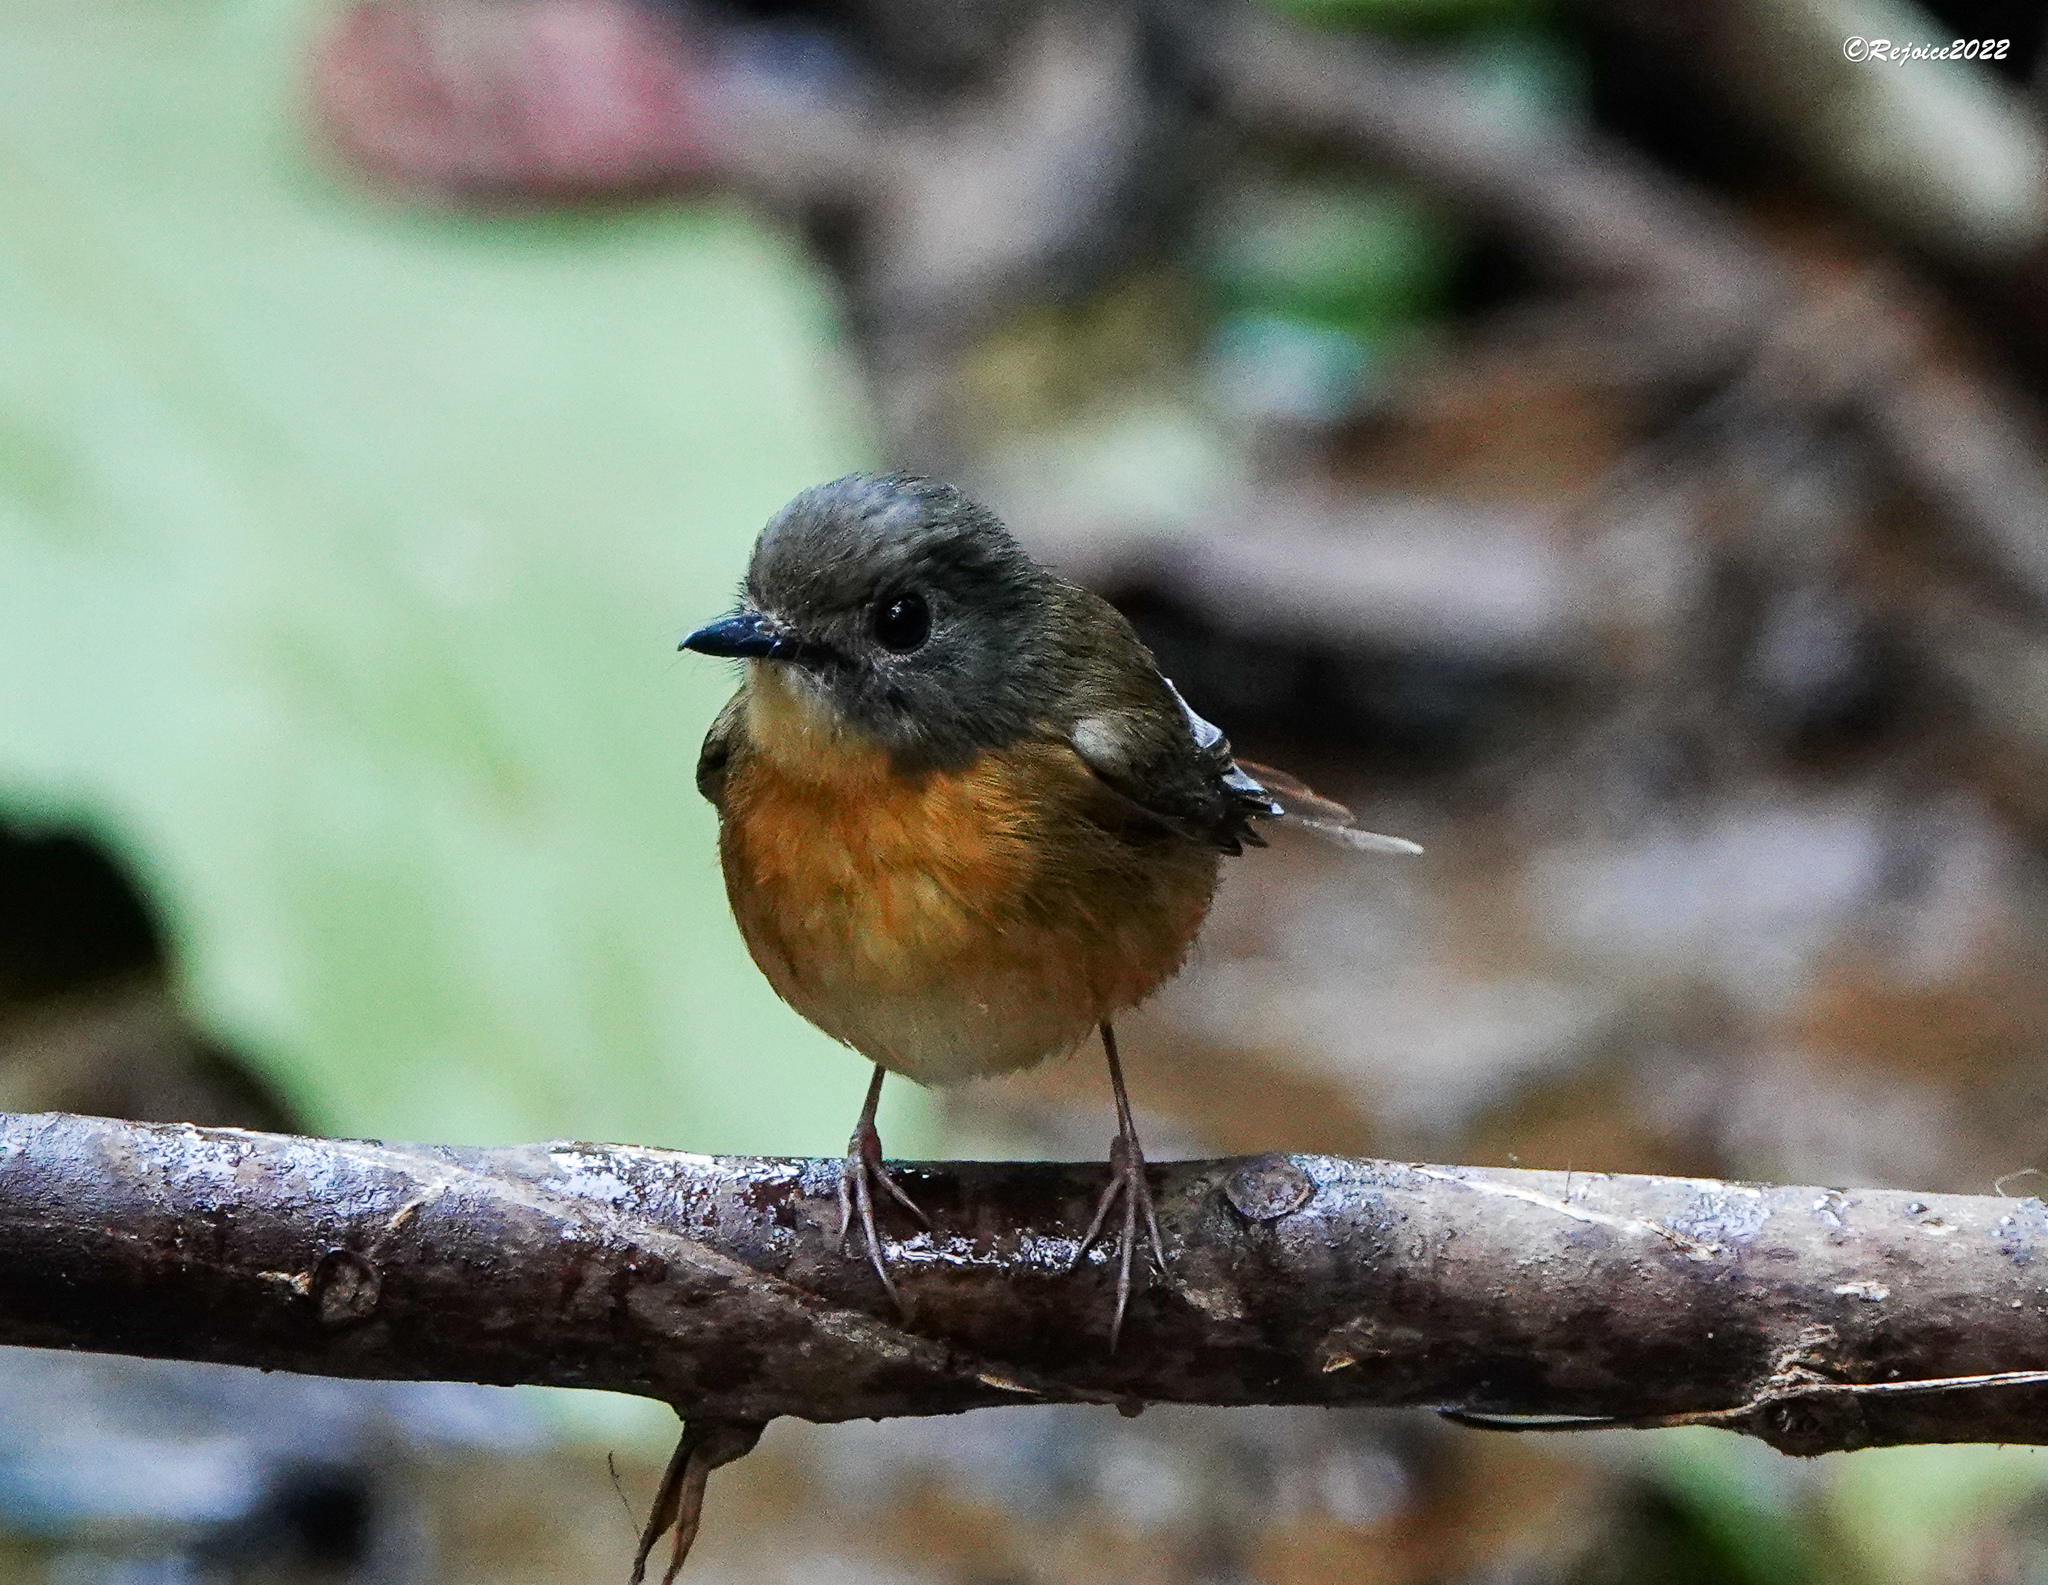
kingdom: Animalia
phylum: Chordata
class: Aves
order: Passeriformes
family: Muscicapidae
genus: Cyornis
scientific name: Cyornis poliogenys
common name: Pale-chinned blue flycatcher
